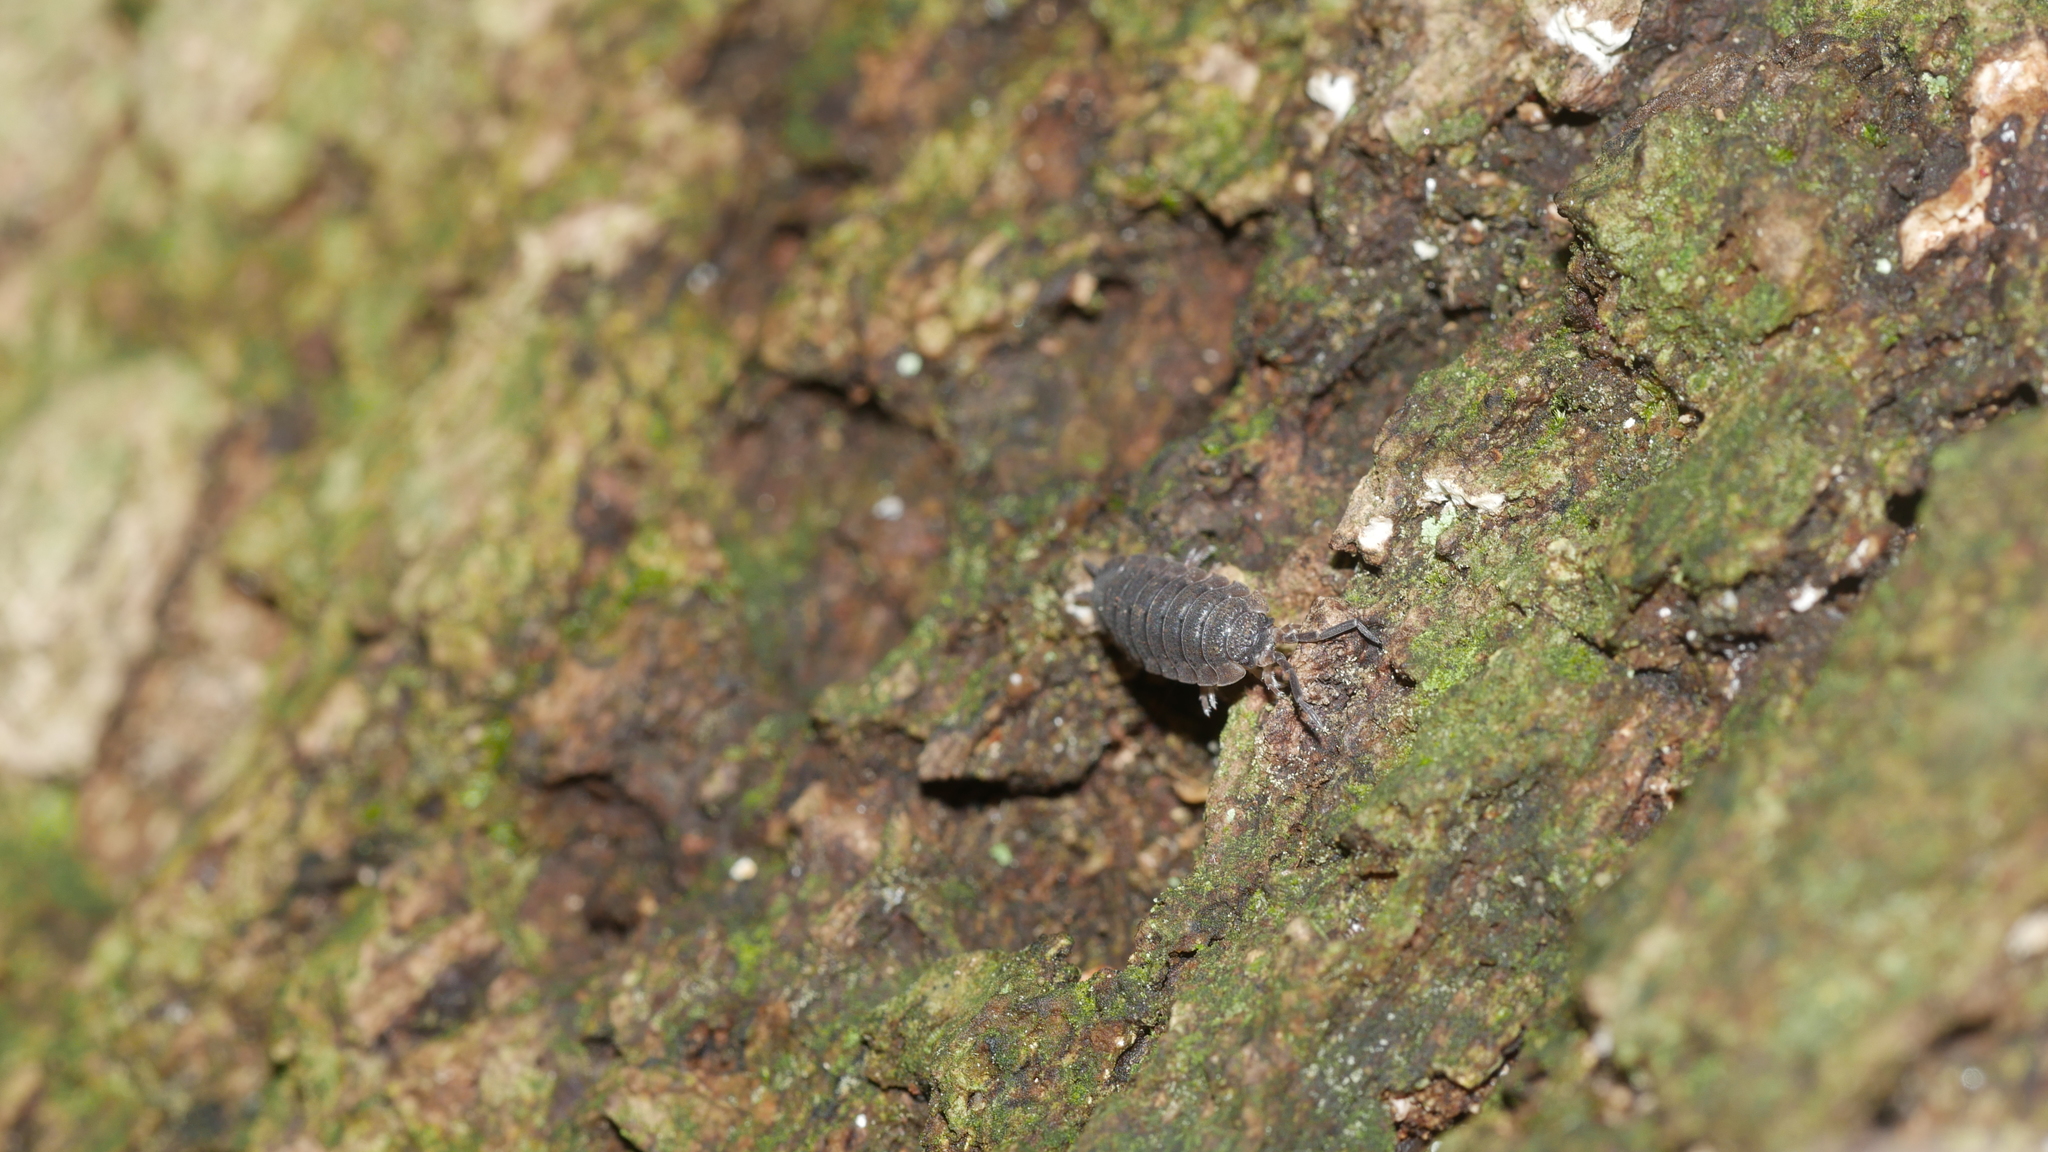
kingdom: Animalia
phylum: Arthropoda
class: Malacostraca
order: Isopoda
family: Porcellionidae
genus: Porcellio
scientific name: Porcellio scaber
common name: Common rough woodlouse
